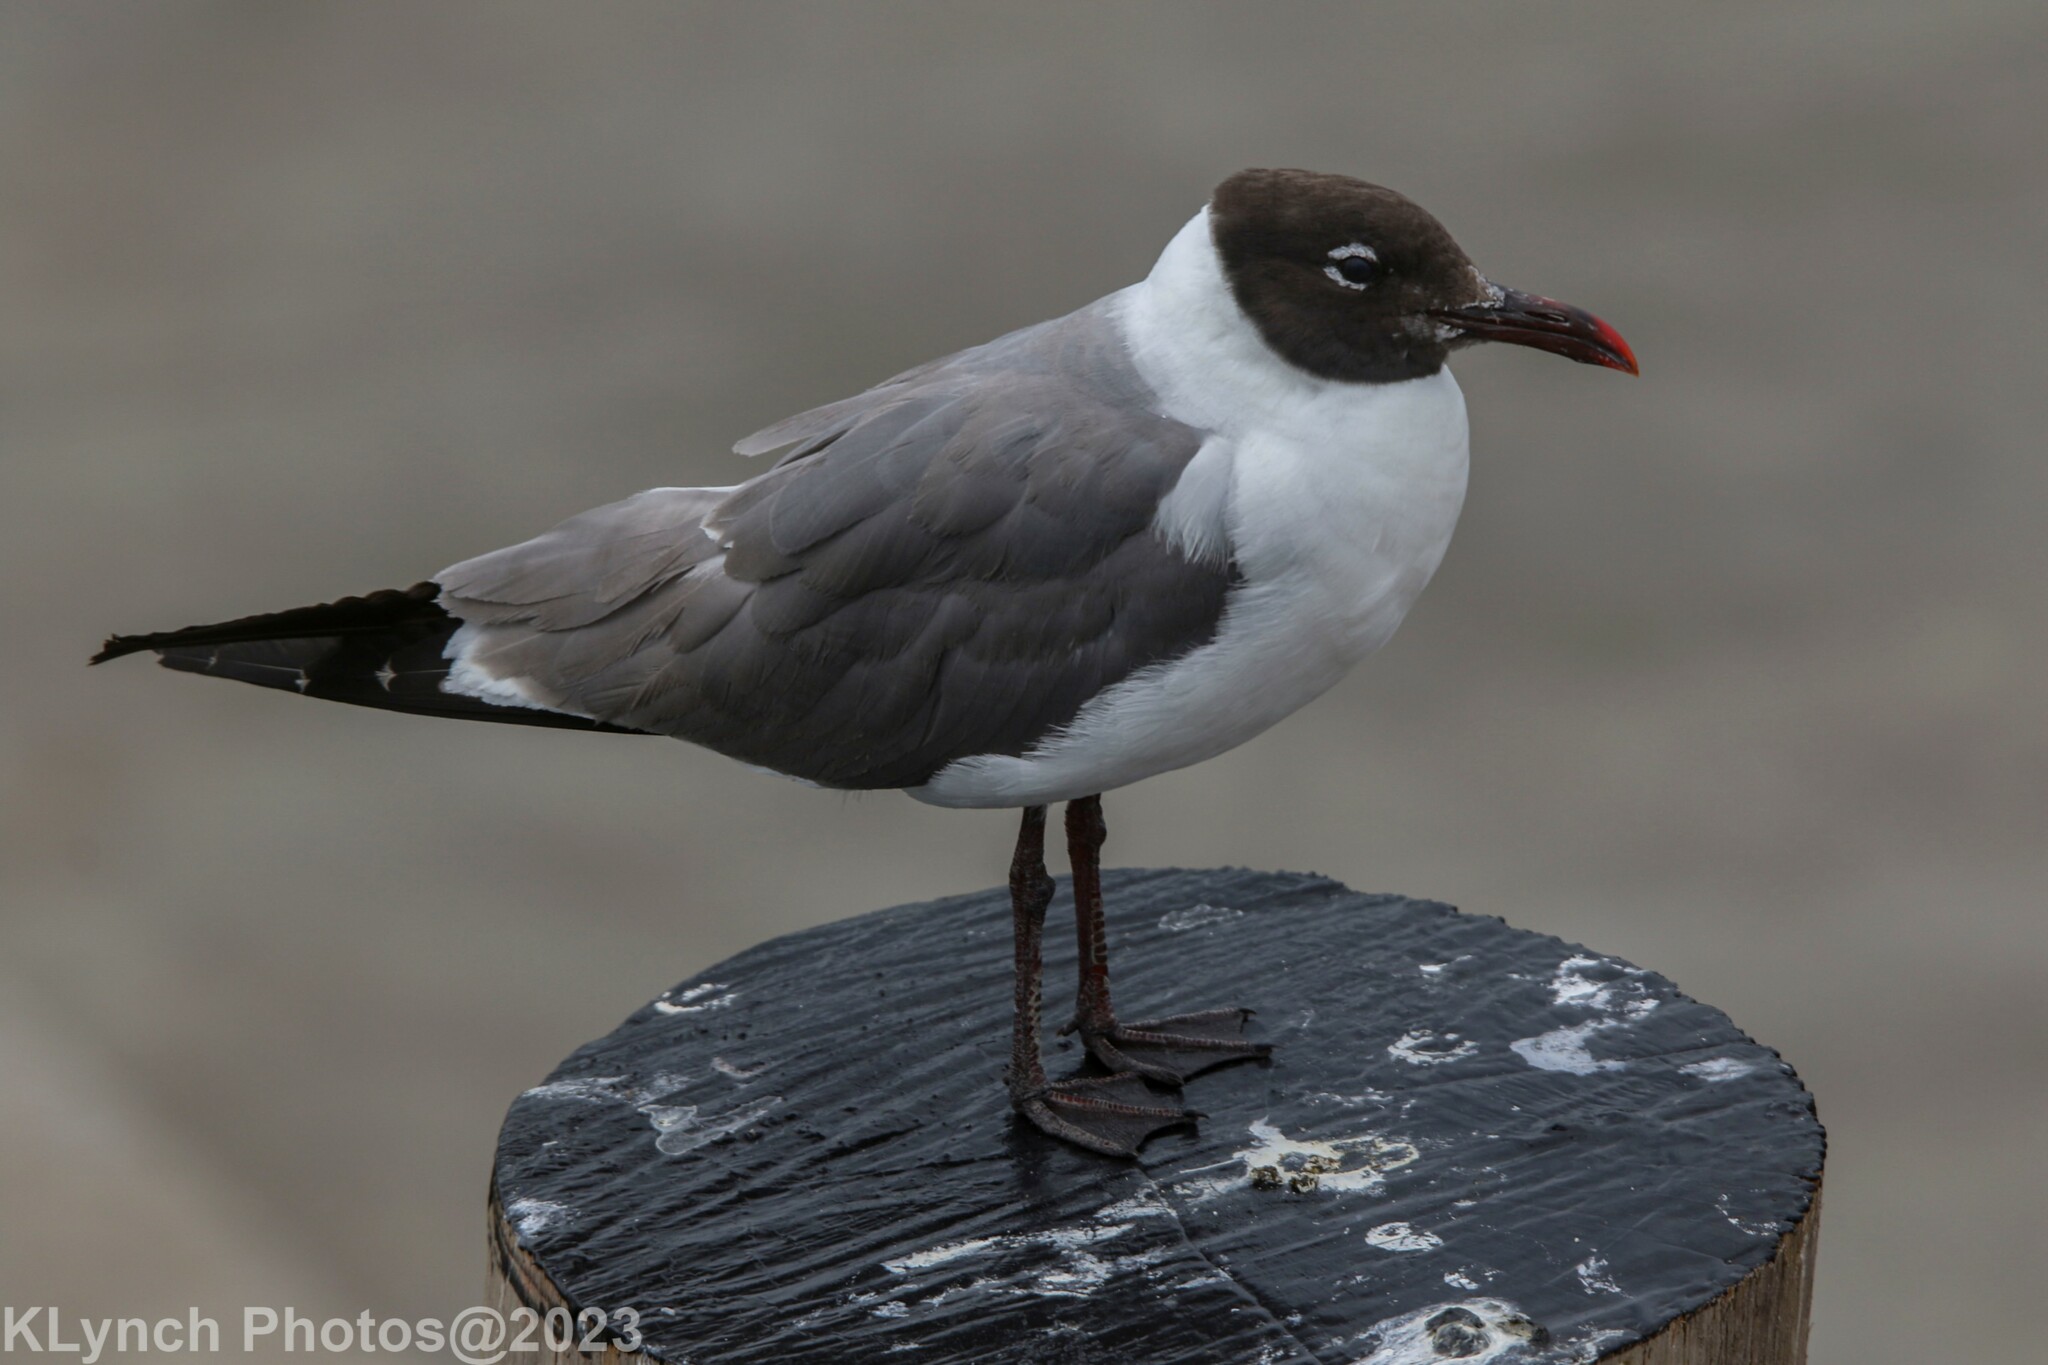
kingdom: Animalia
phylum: Chordata
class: Aves
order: Charadriiformes
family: Laridae
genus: Leucophaeus
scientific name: Leucophaeus atricilla
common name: Laughing gull
